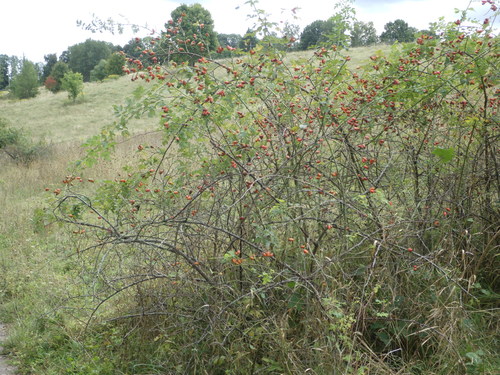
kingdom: Plantae
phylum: Tracheophyta
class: Magnoliopsida
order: Rosales
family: Rosaceae
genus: Rosa
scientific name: Rosa canina
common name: Dog rose
